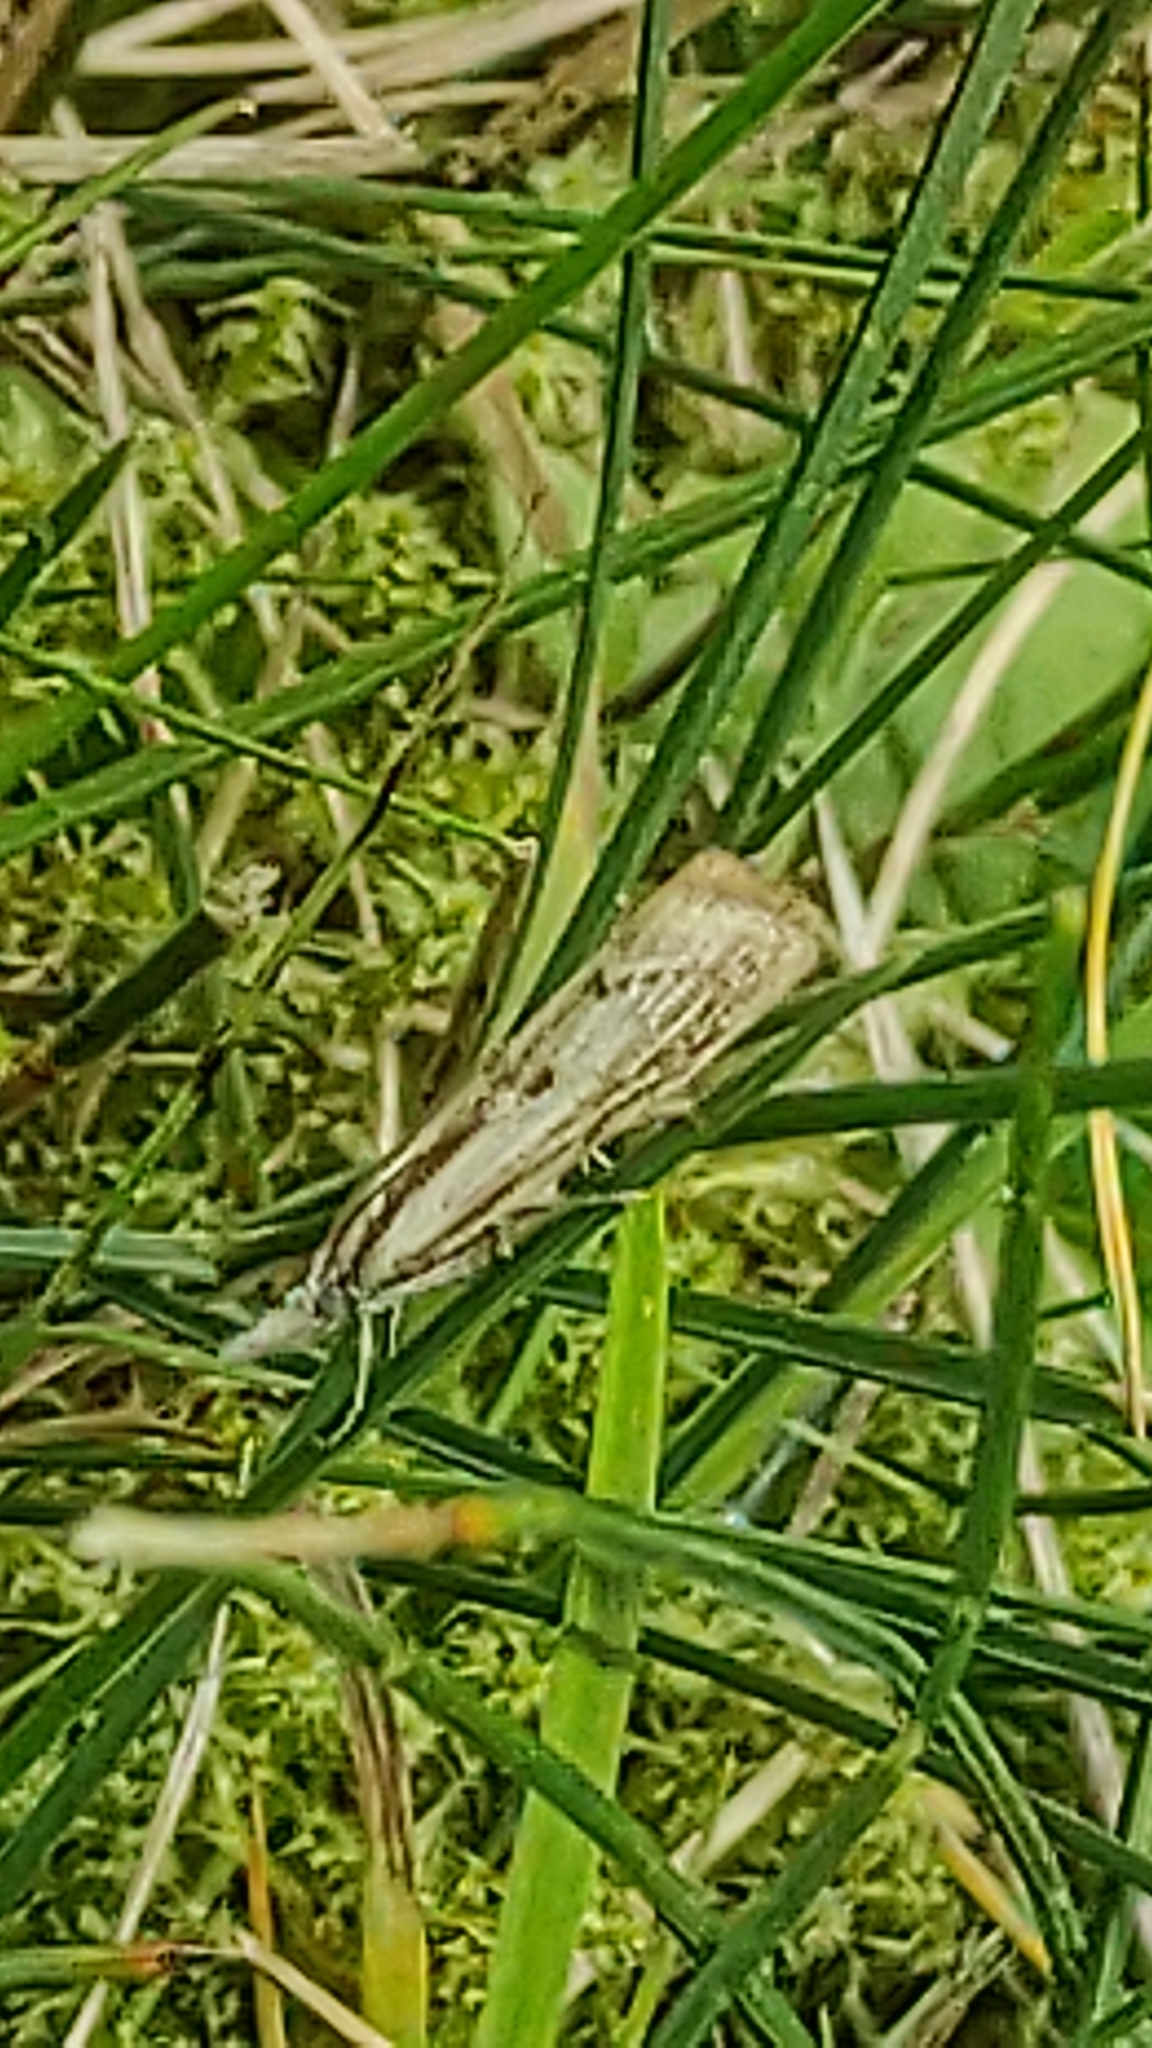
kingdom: Animalia
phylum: Arthropoda
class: Insecta
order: Lepidoptera
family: Crambidae
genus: Agriphila
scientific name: Agriphila inquinatella
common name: Barred grass-veneer
